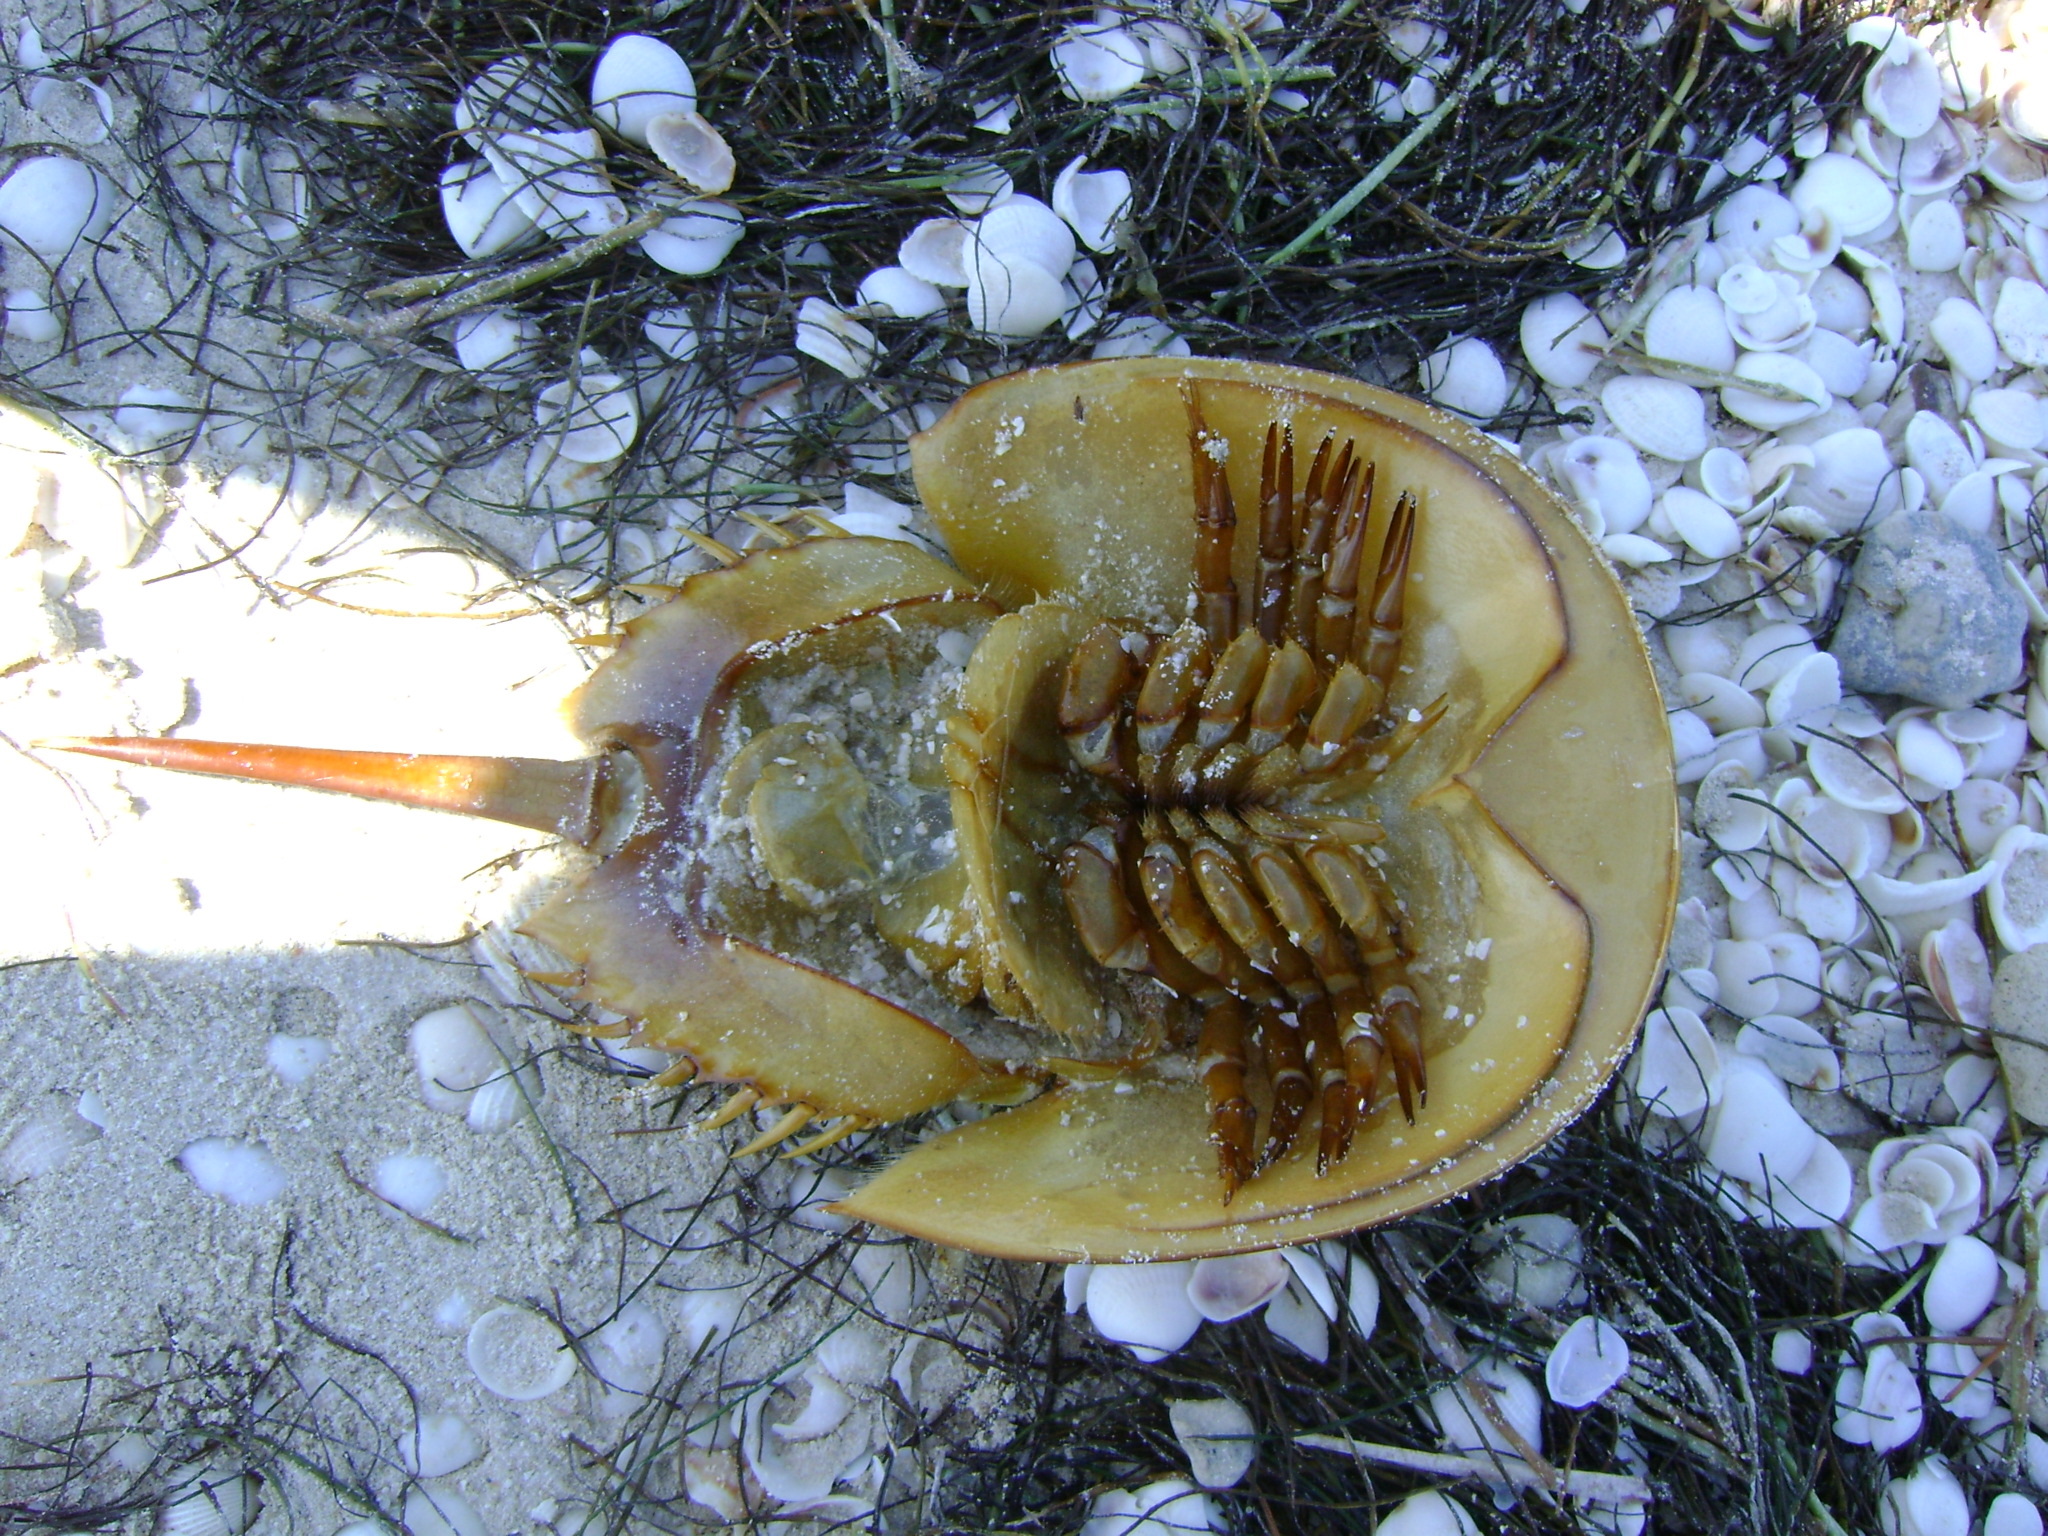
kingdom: Animalia
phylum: Arthropoda
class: Merostomata
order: Xiphosurida
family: Limulidae
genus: Limulus
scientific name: Limulus polyphemus
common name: Horseshoe crab
